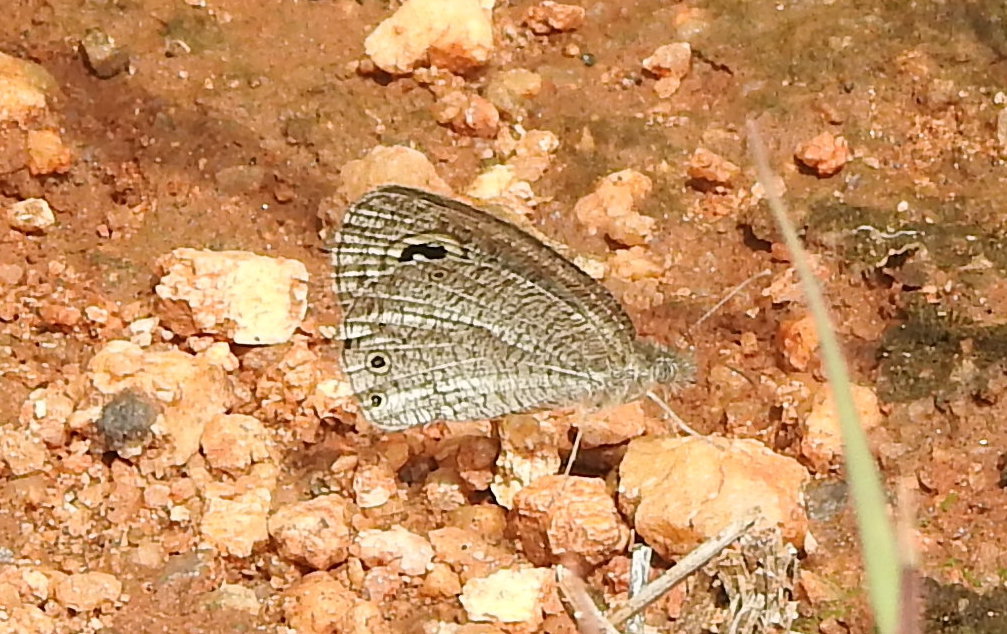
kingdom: Animalia
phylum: Arthropoda
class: Insecta
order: Lepidoptera
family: Nymphalidae
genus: Ypthima
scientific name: Ypthima asterope
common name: African ringlet
